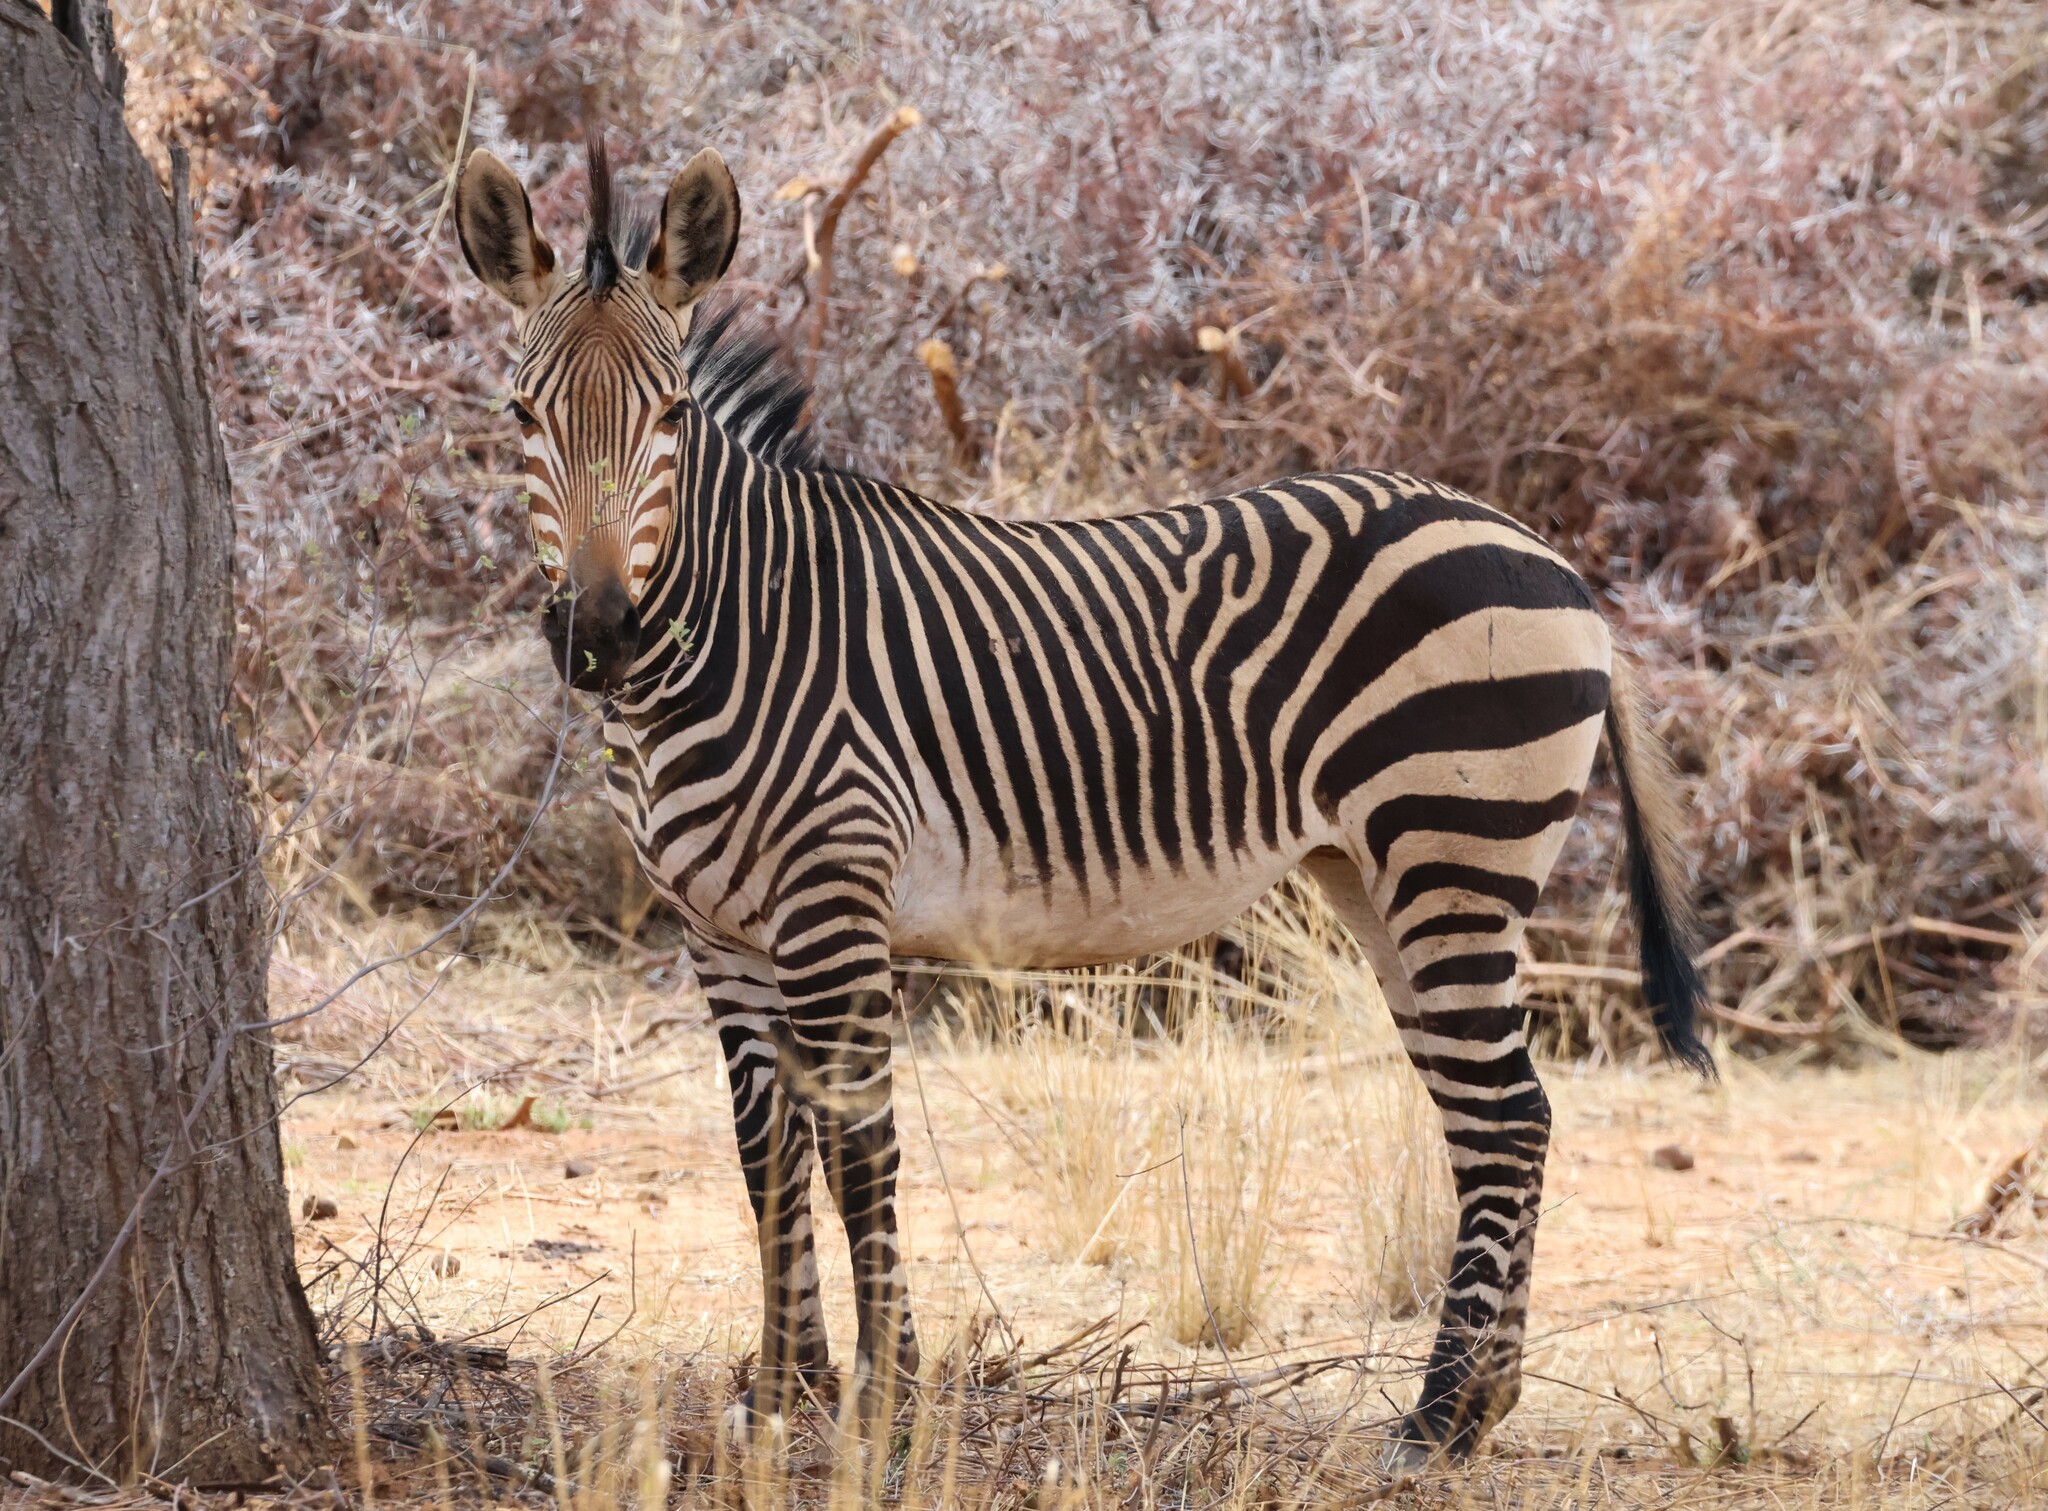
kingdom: Animalia
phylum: Chordata
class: Mammalia
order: Perissodactyla
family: Equidae
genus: Equus
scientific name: Equus hartmannae
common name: Hartmann's mountain zebra
